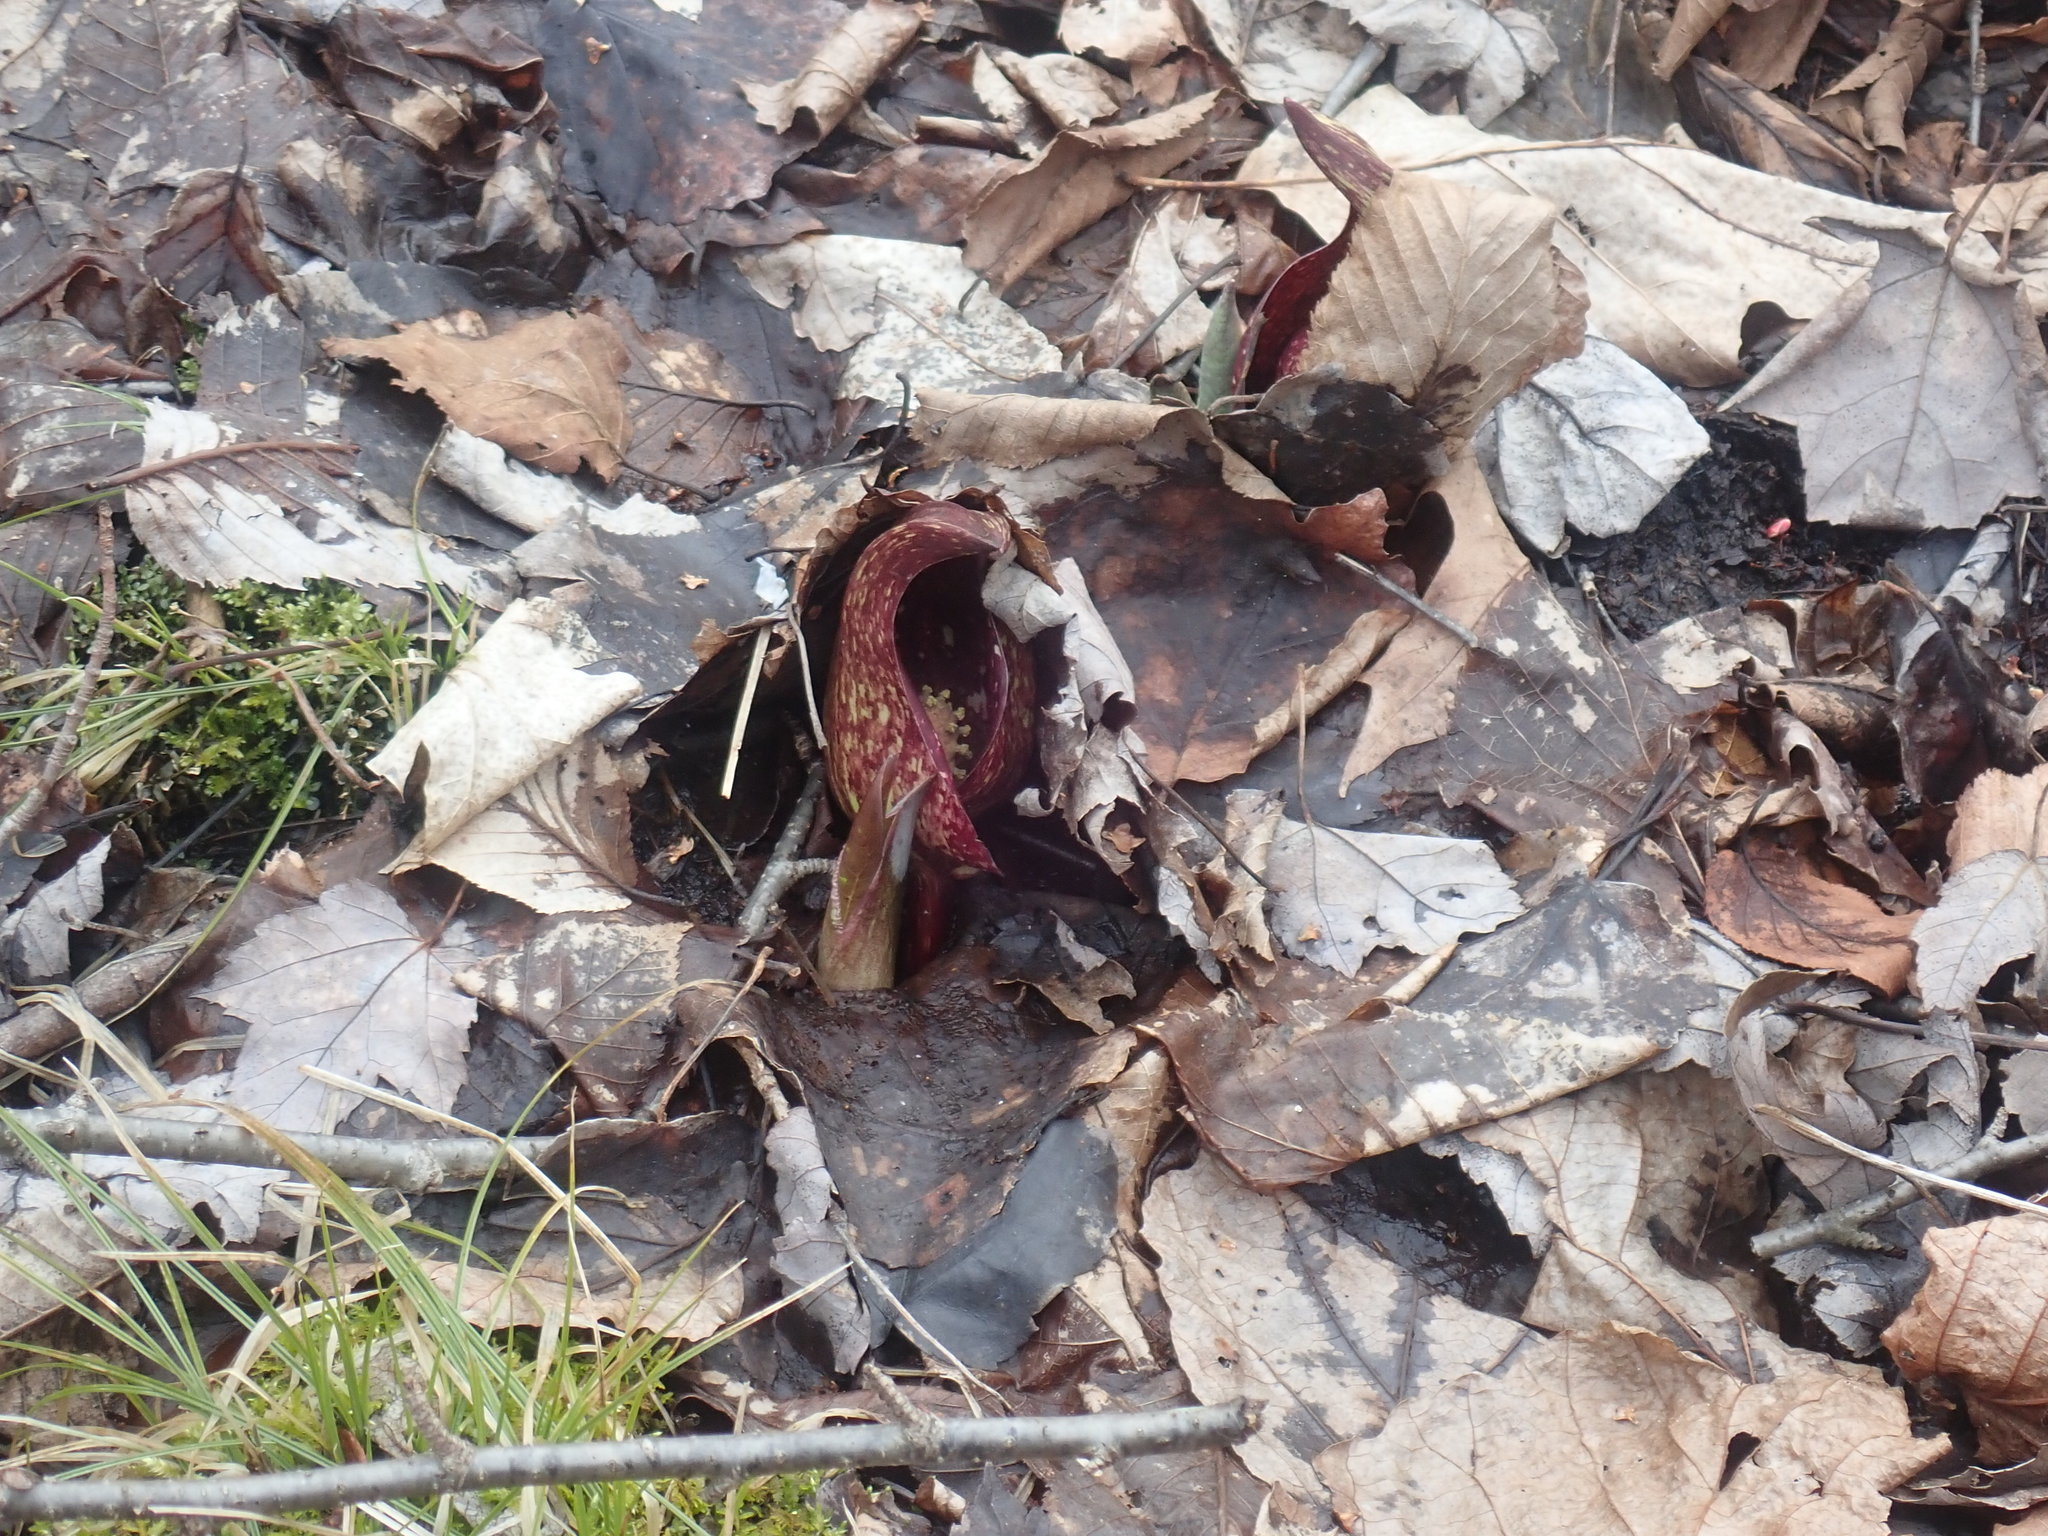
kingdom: Plantae
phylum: Tracheophyta
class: Liliopsida
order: Alismatales
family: Araceae
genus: Symplocarpus
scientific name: Symplocarpus foetidus
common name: Eastern skunk cabbage
